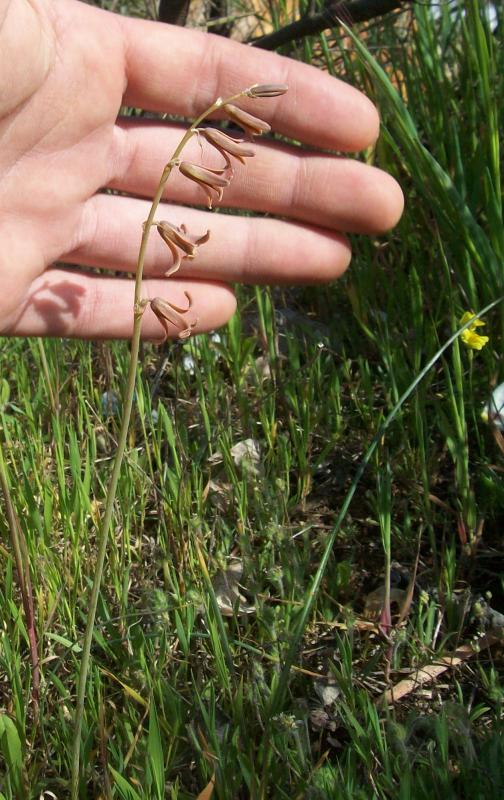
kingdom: Plantae
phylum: Tracheophyta
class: Liliopsida
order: Asparagales
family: Asparagaceae
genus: Dipcadi
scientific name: Dipcadi serotinum
